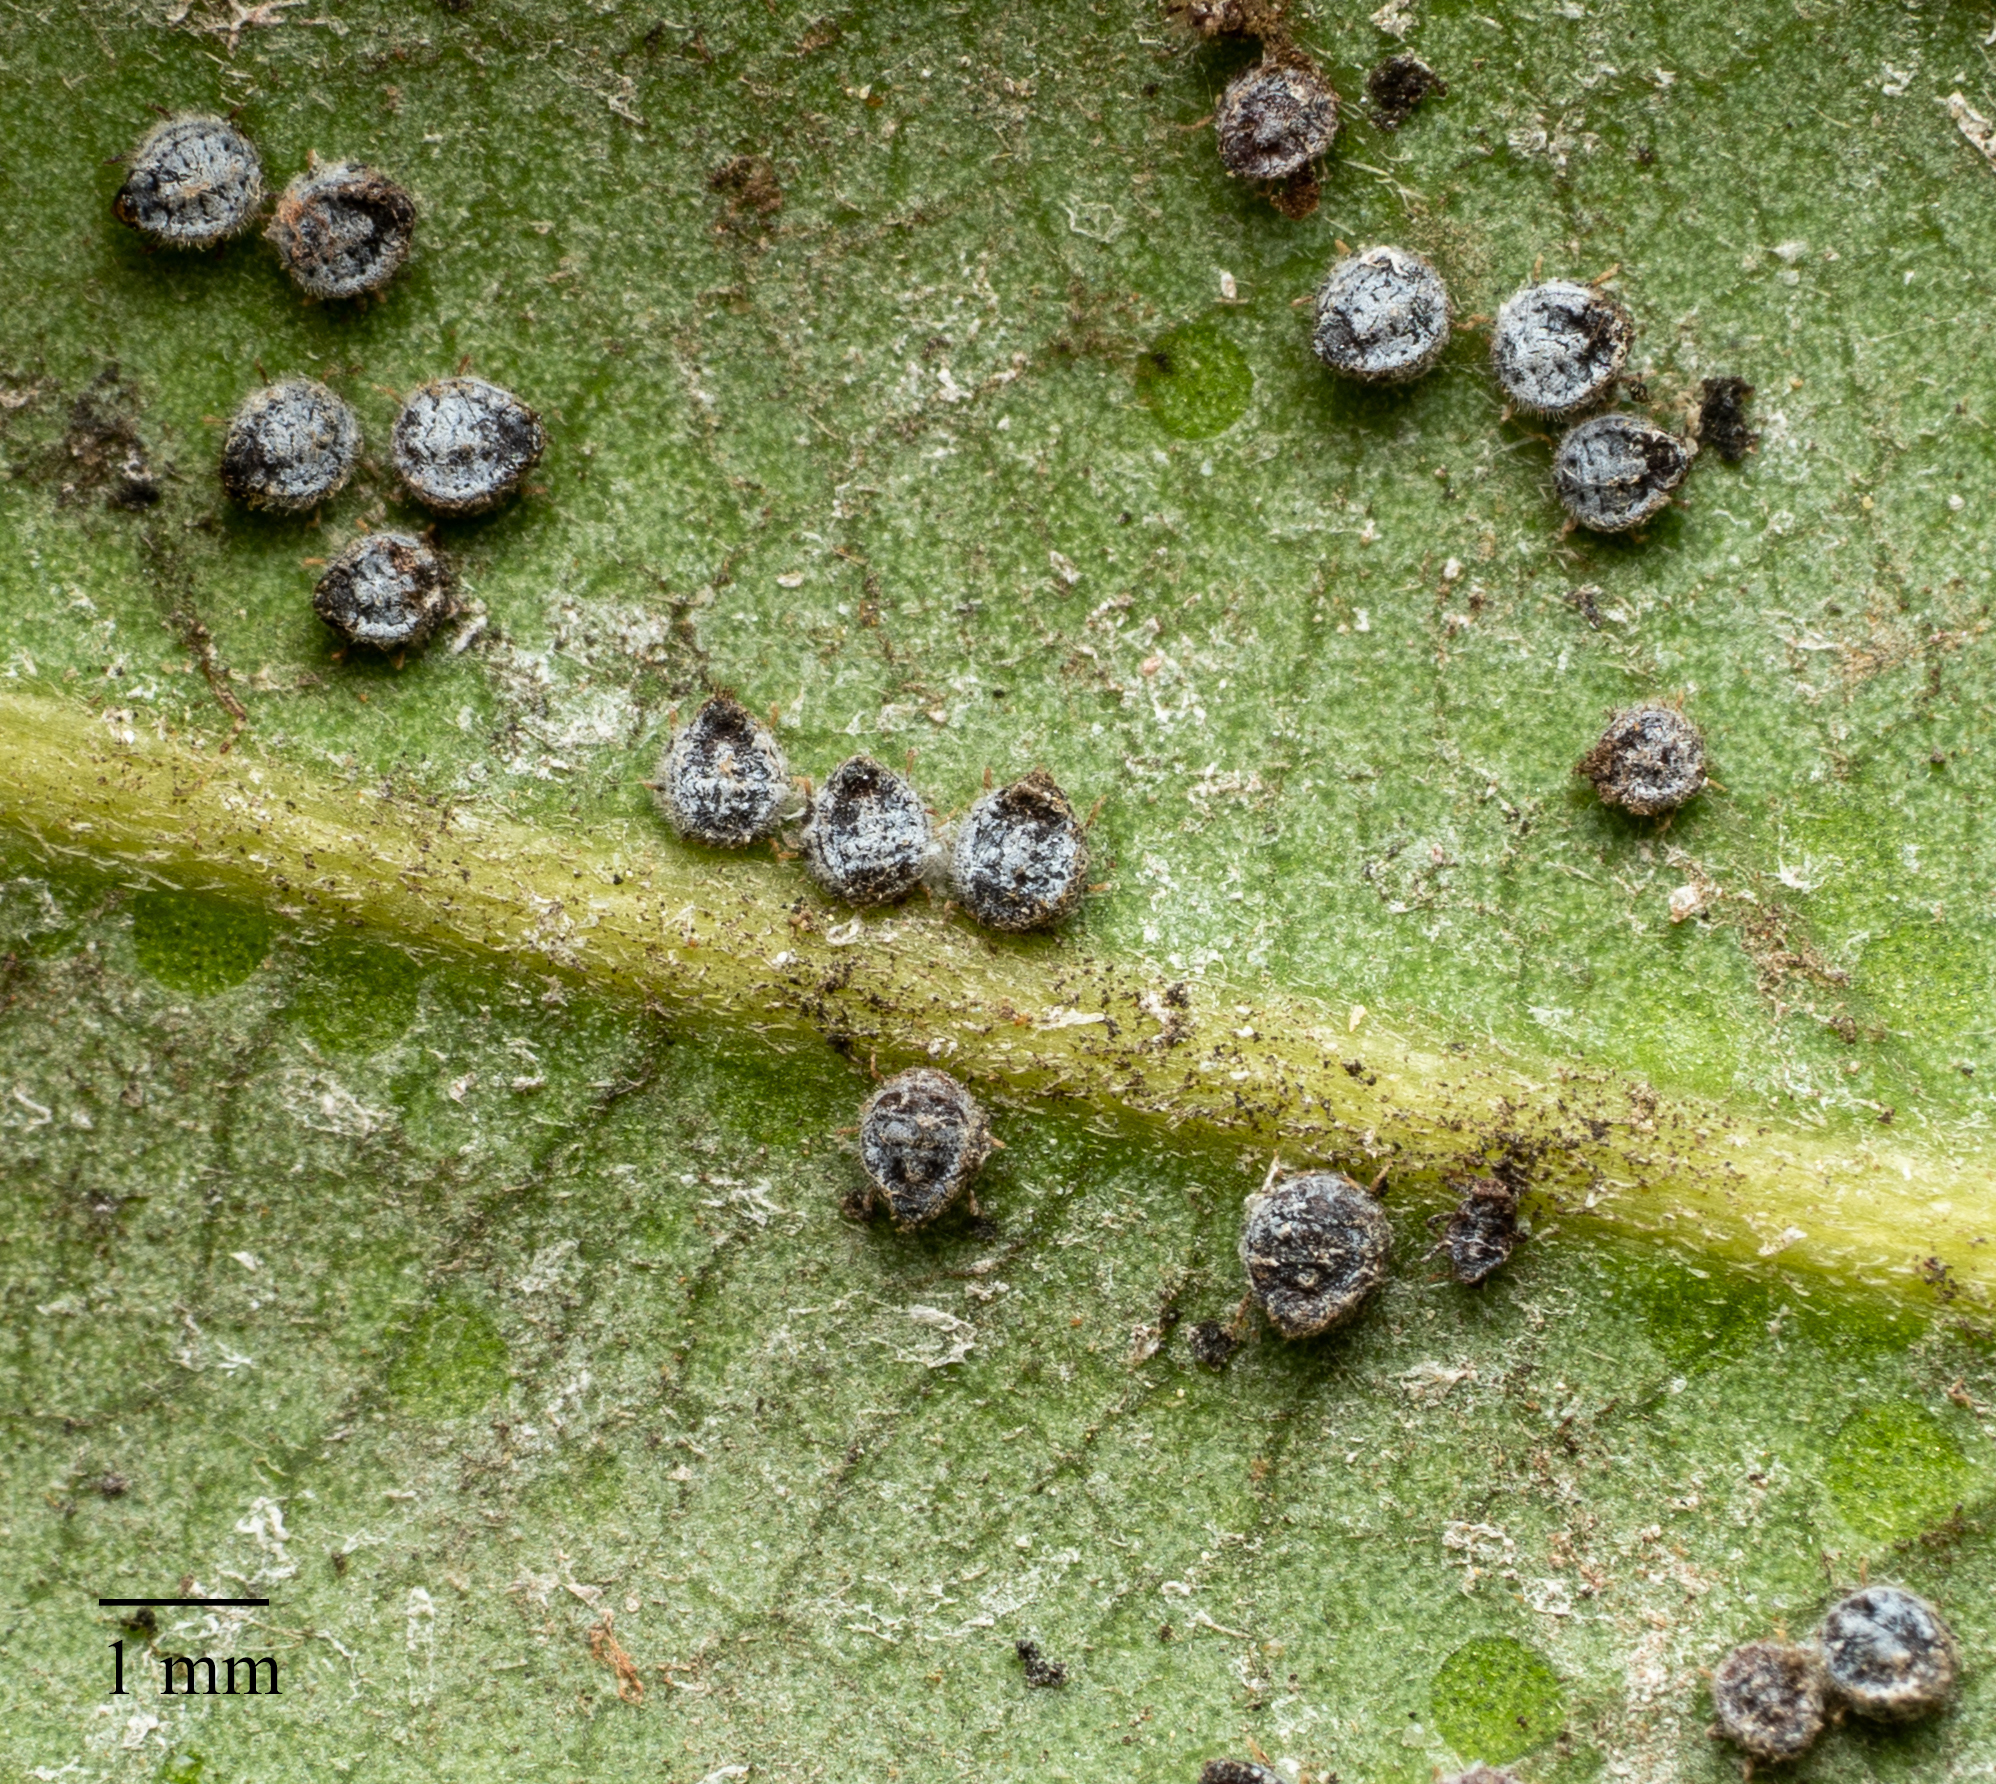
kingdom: Animalia
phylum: Arthropoda
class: Insecta
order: Hemiptera
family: Aphididae
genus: Euthoracaphis
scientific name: Euthoracaphis umbellulariae
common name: Aphid
